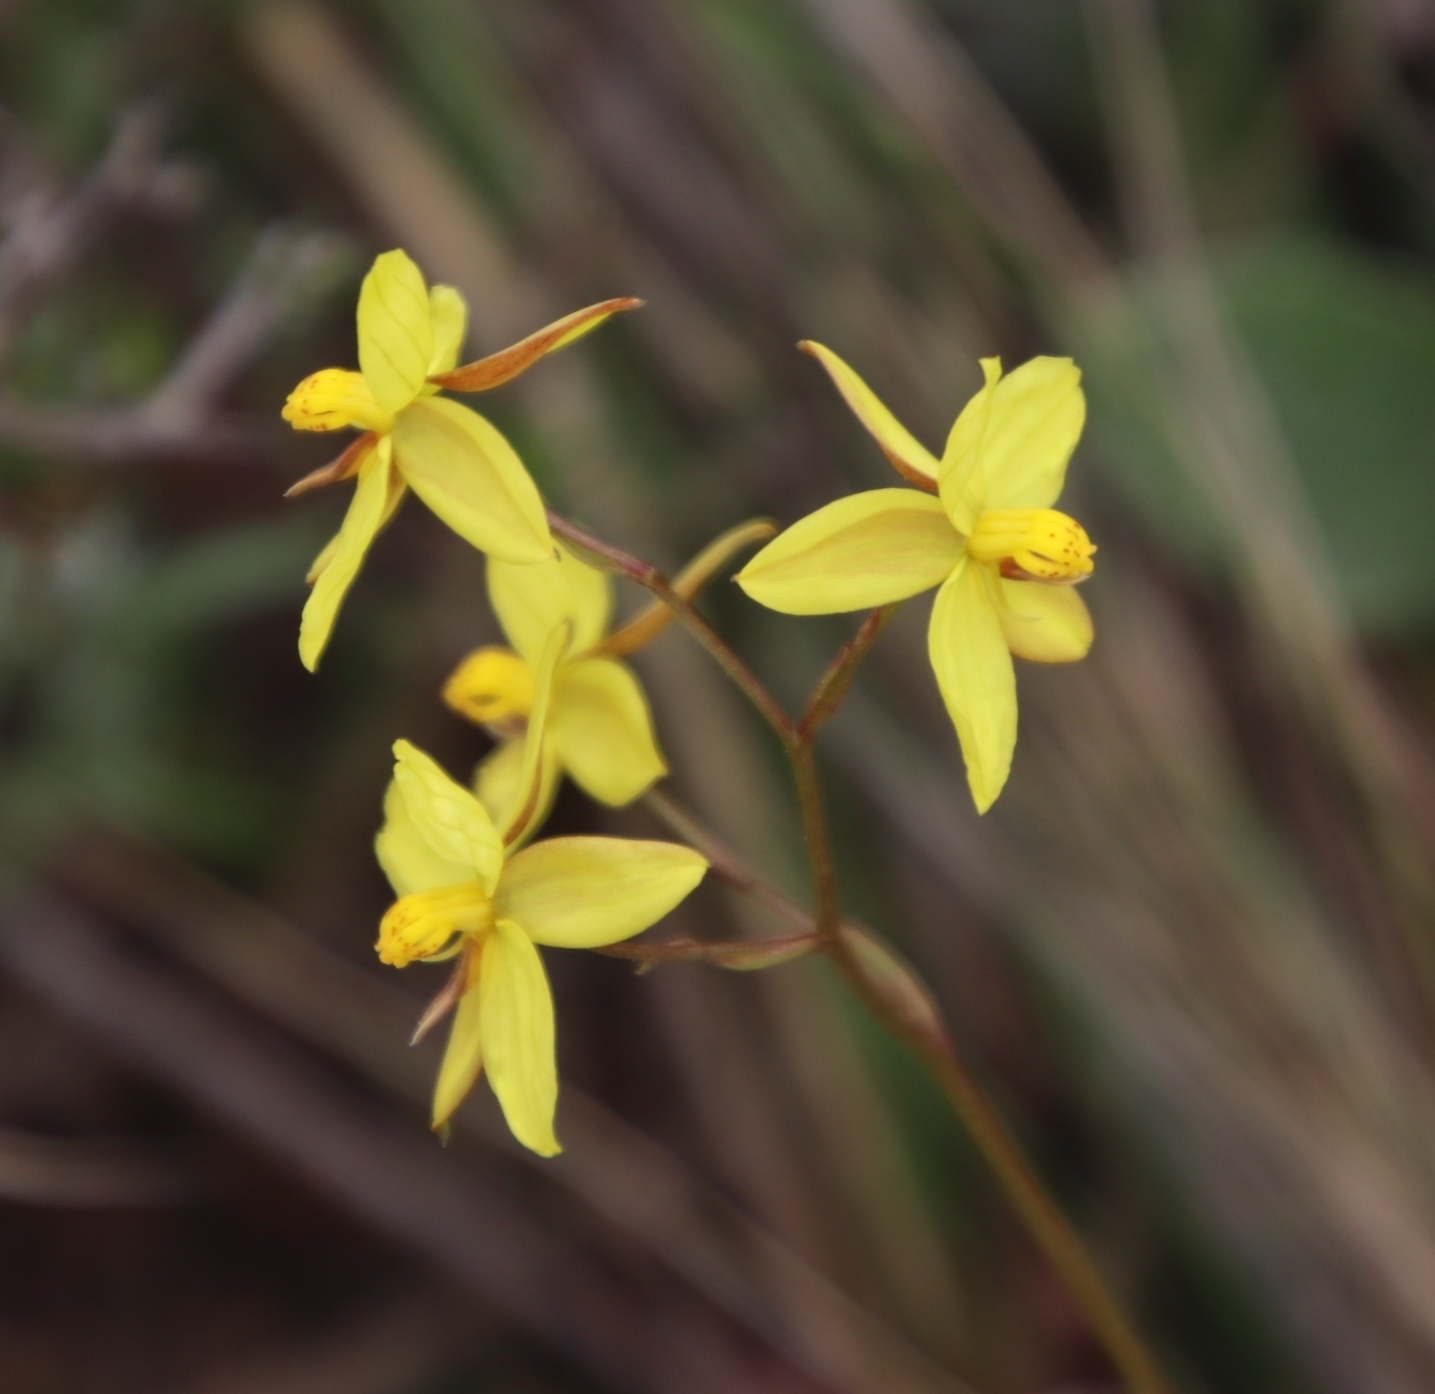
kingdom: Plantae
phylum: Tracheophyta
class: Liliopsida
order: Asparagales
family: Tecophilaeaceae
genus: Cyanella
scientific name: Cyanella lutea
